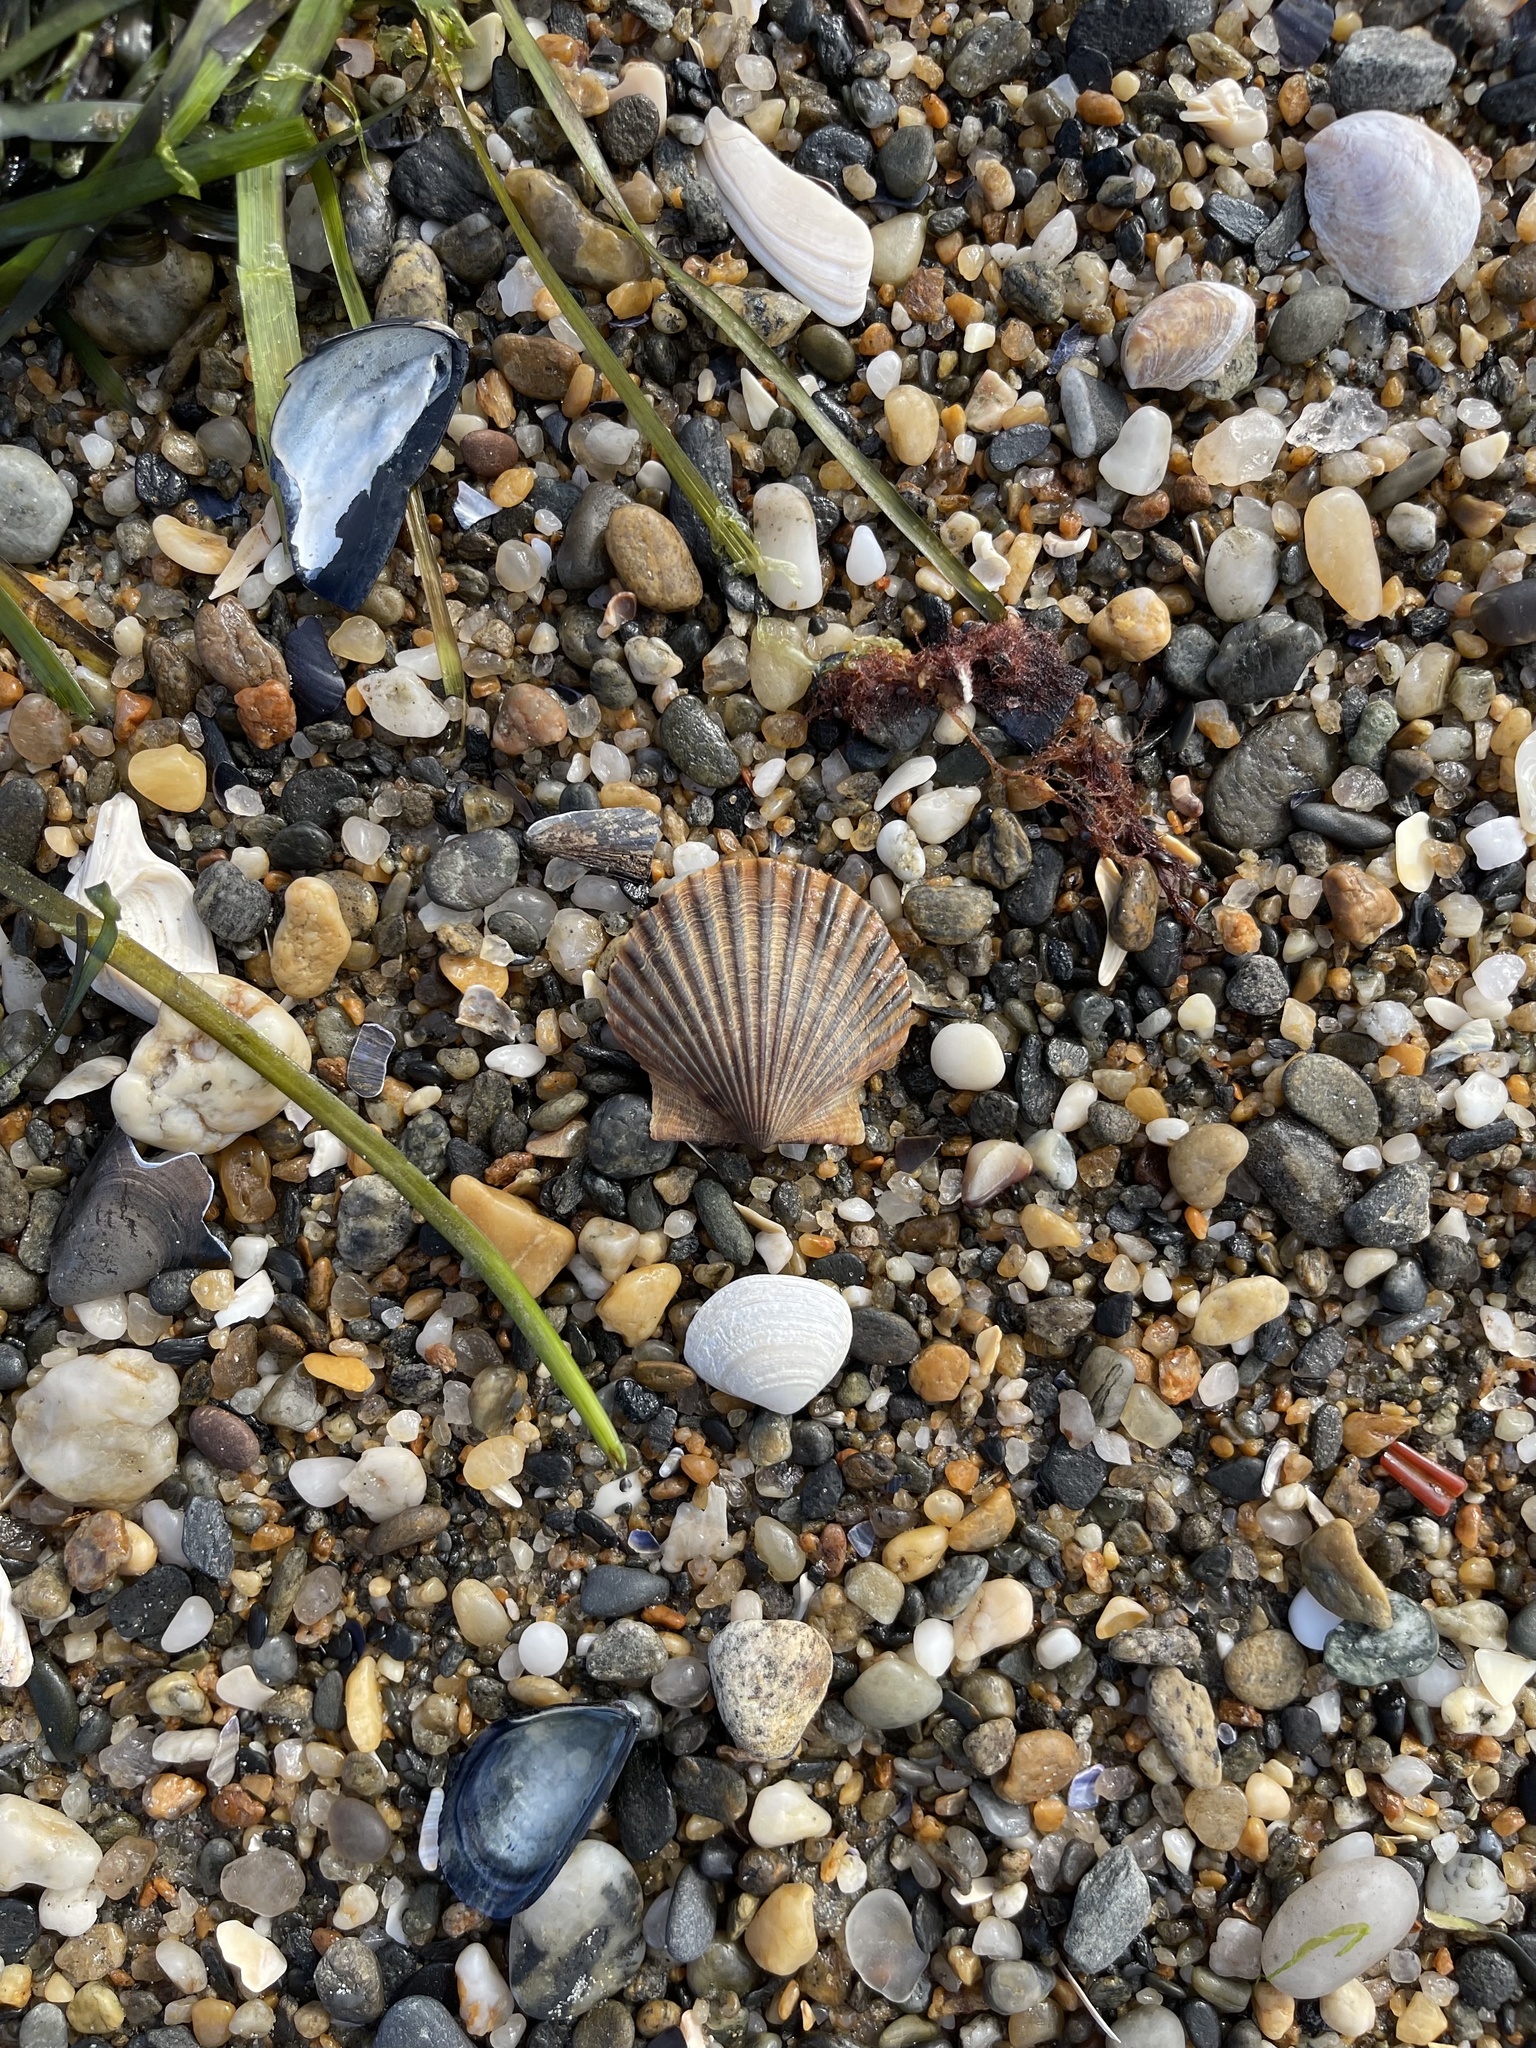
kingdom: Animalia
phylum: Mollusca
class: Bivalvia
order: Pectinida
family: Pectinidae
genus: Argopecten
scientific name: Argopecten irradians
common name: Atlantic bay scallop
